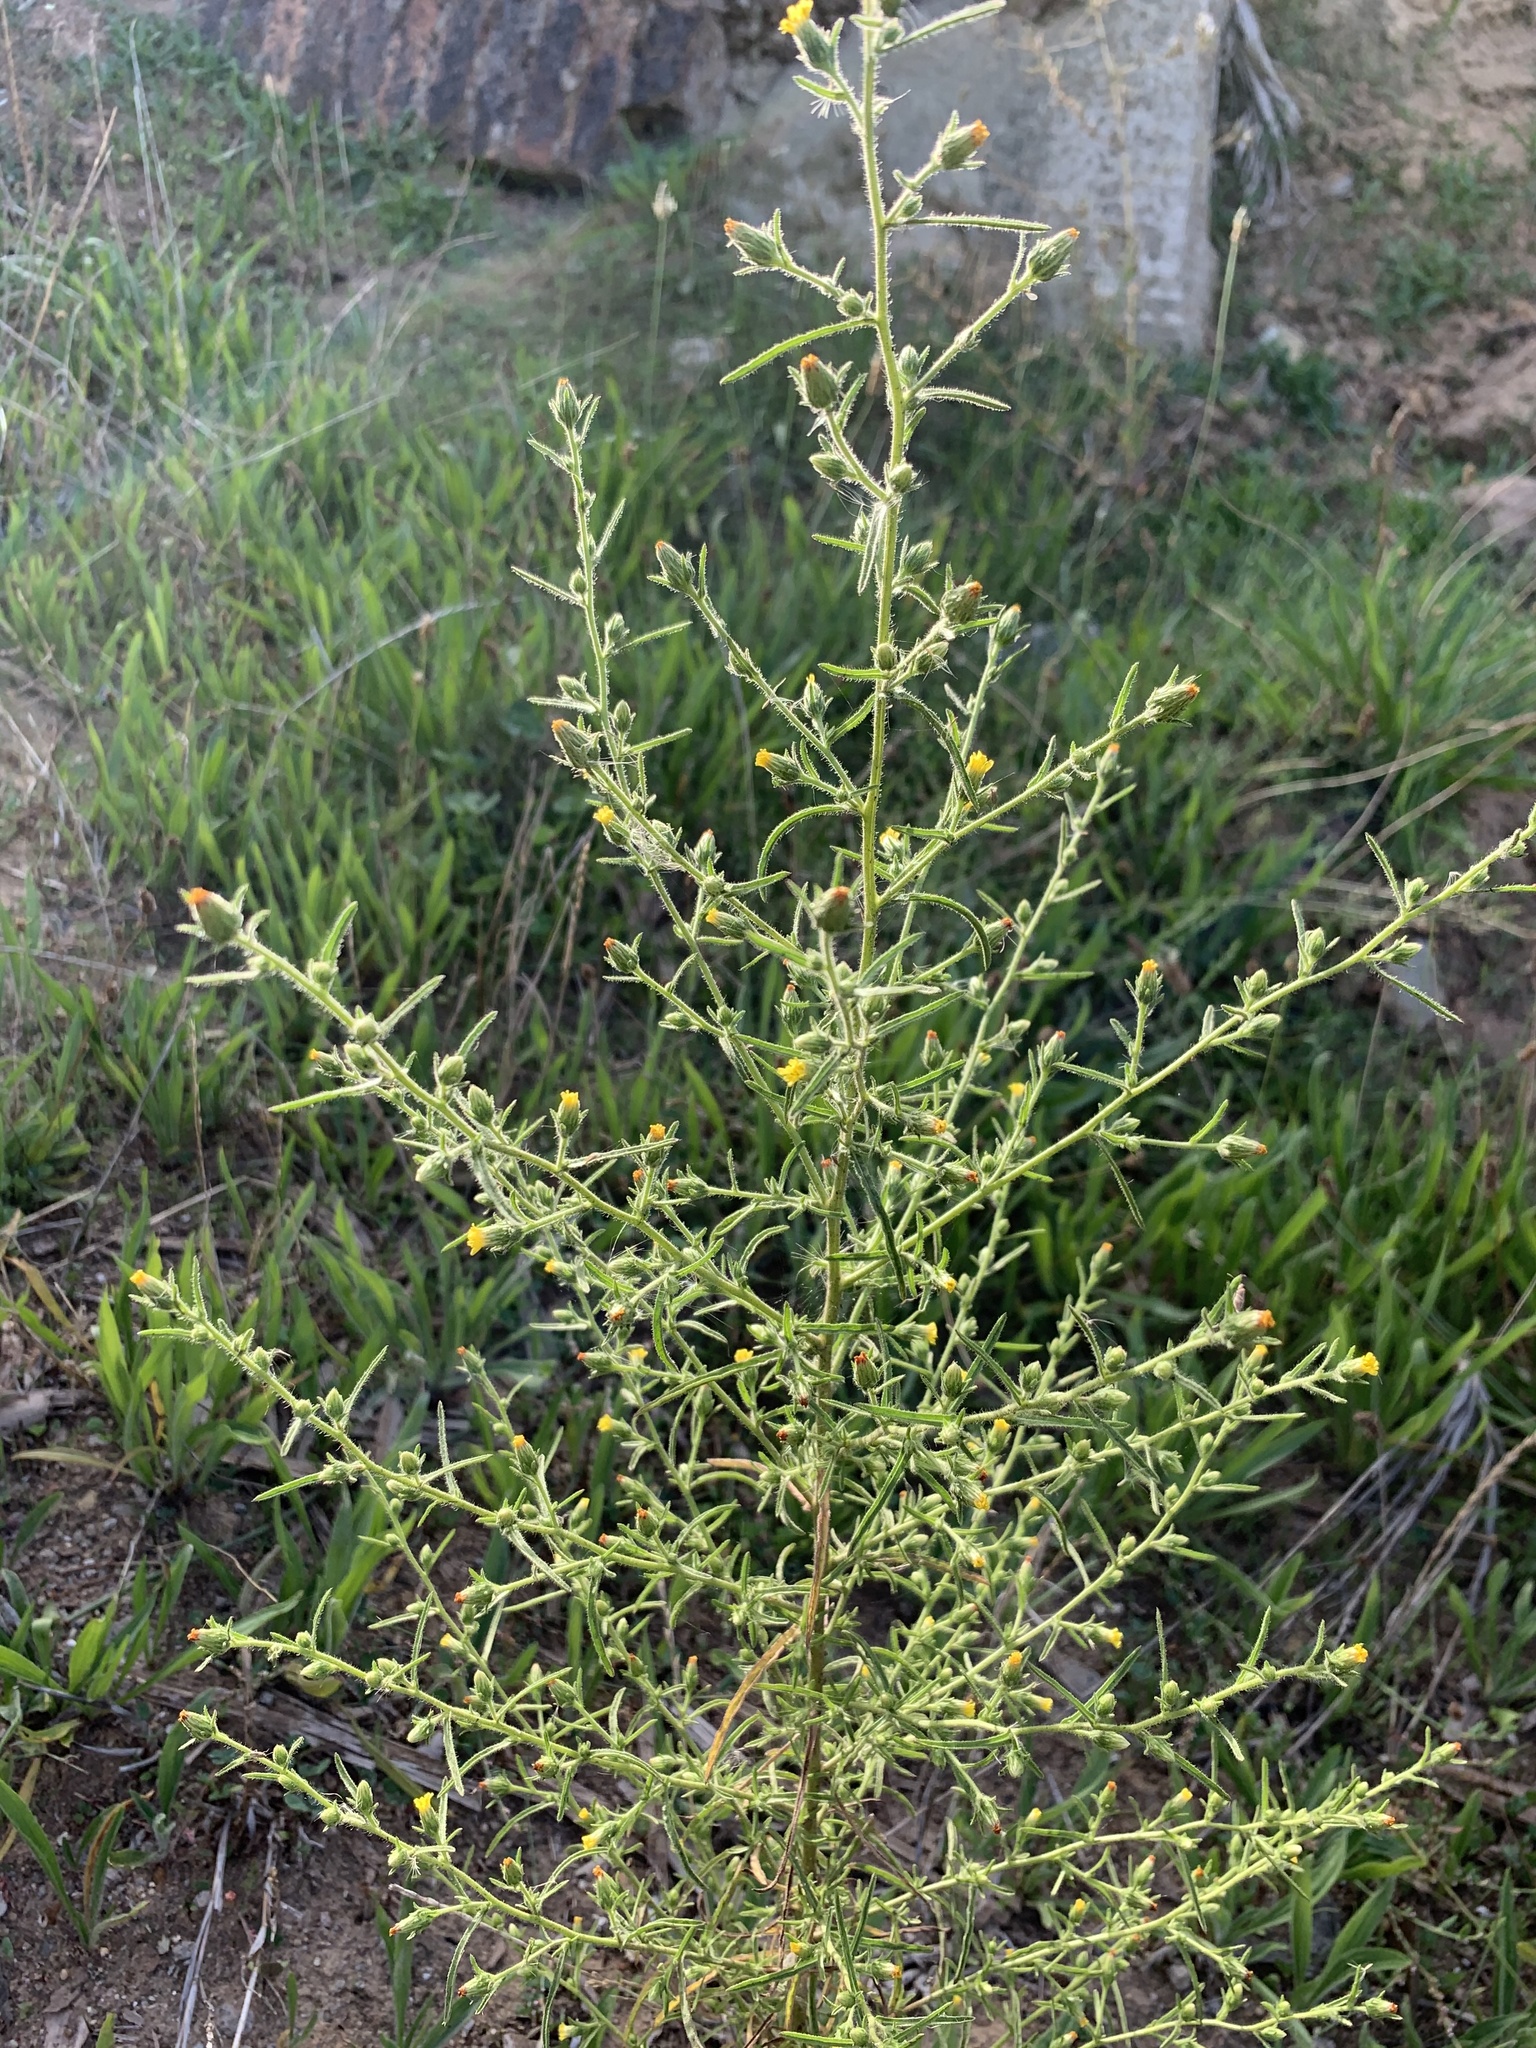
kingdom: Plantae
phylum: Tracheophyta
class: Magnoliopsida
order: Asterales
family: Asteraceae
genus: Dittrichia
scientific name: Dittrichia graveolens
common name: Stinking fleabane
